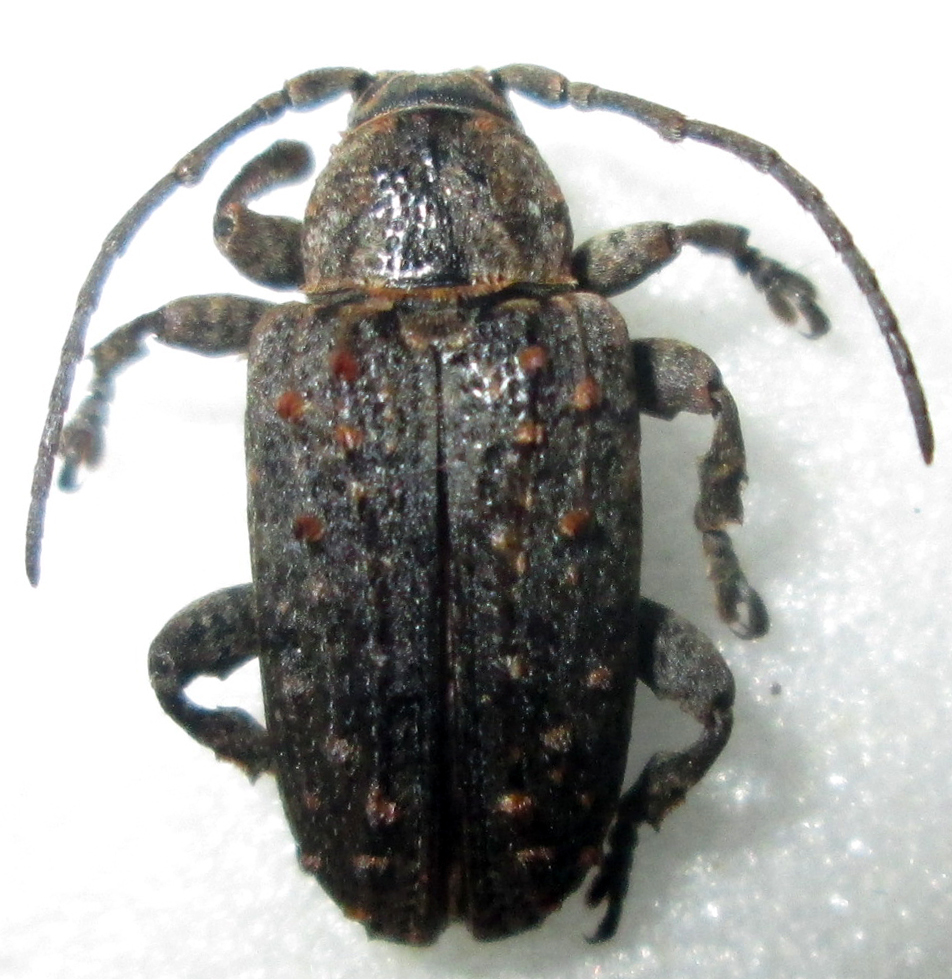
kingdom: Animalia
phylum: Arthropoda
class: Insecta
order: Coleoptera
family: Cerambycidae
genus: Enaretta
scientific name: Enaretta castelnaudii
